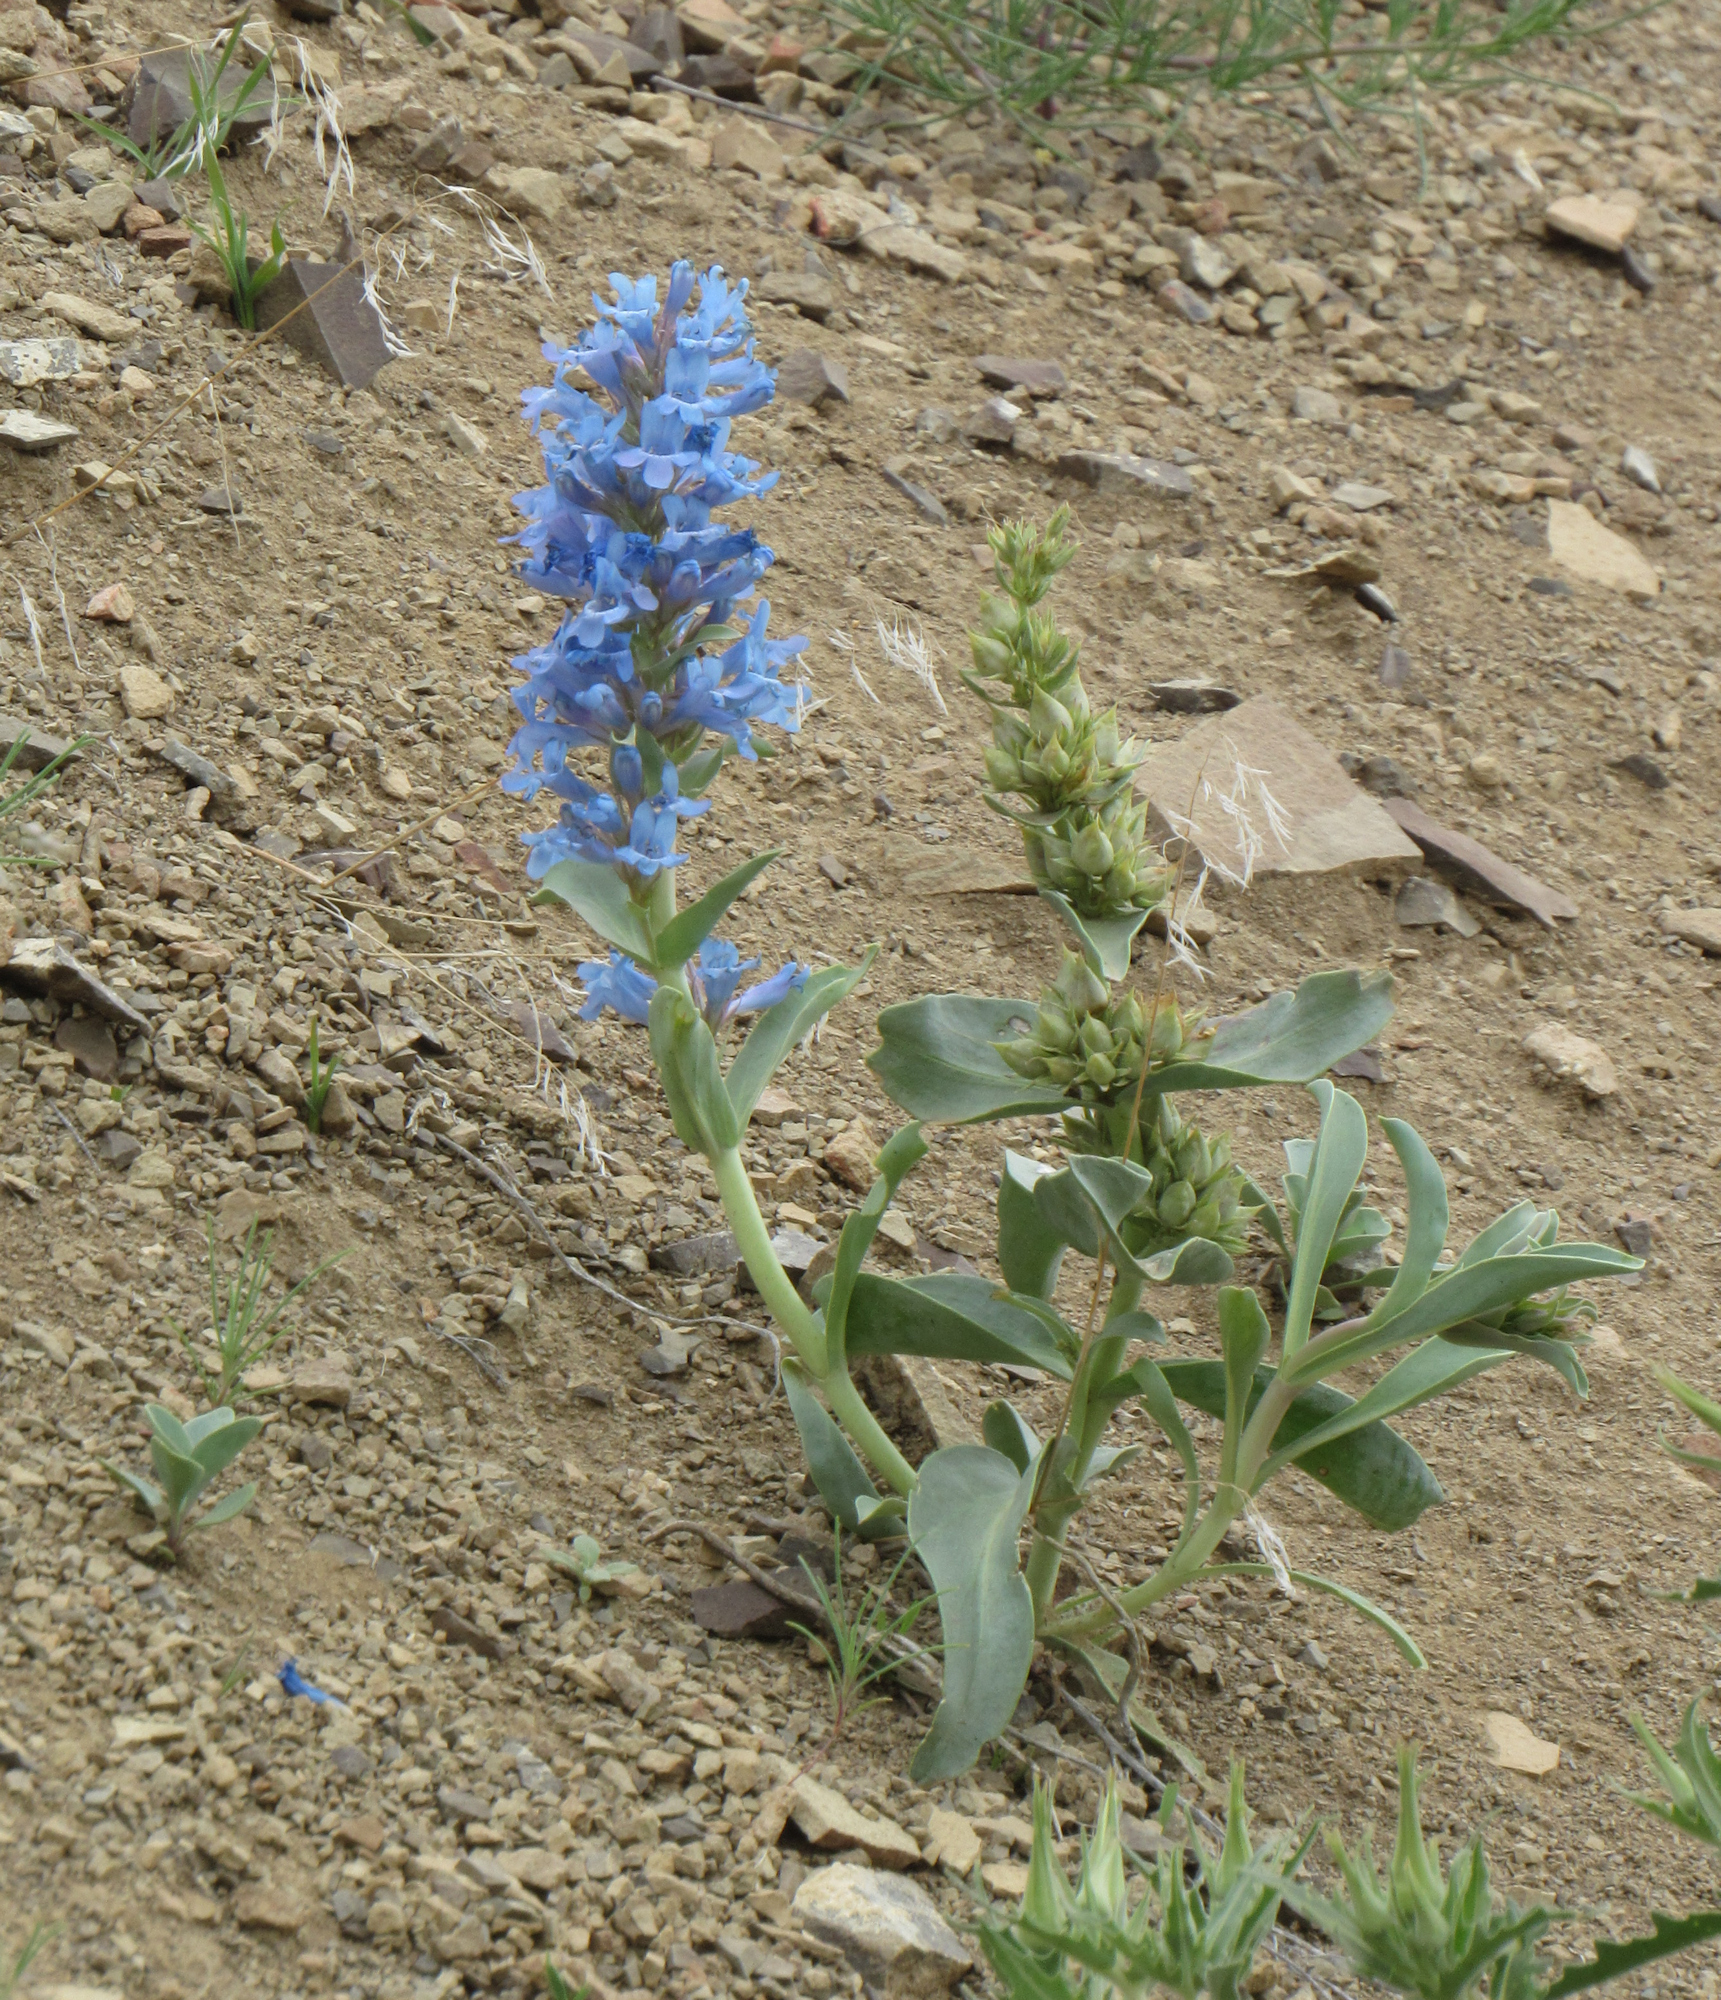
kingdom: Plantae
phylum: Tracheophyta
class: Magnoliopsida
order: Lamiales
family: Plantaginaceae
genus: Penstemon
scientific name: Penstemon nitidus
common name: Shining penstemon
